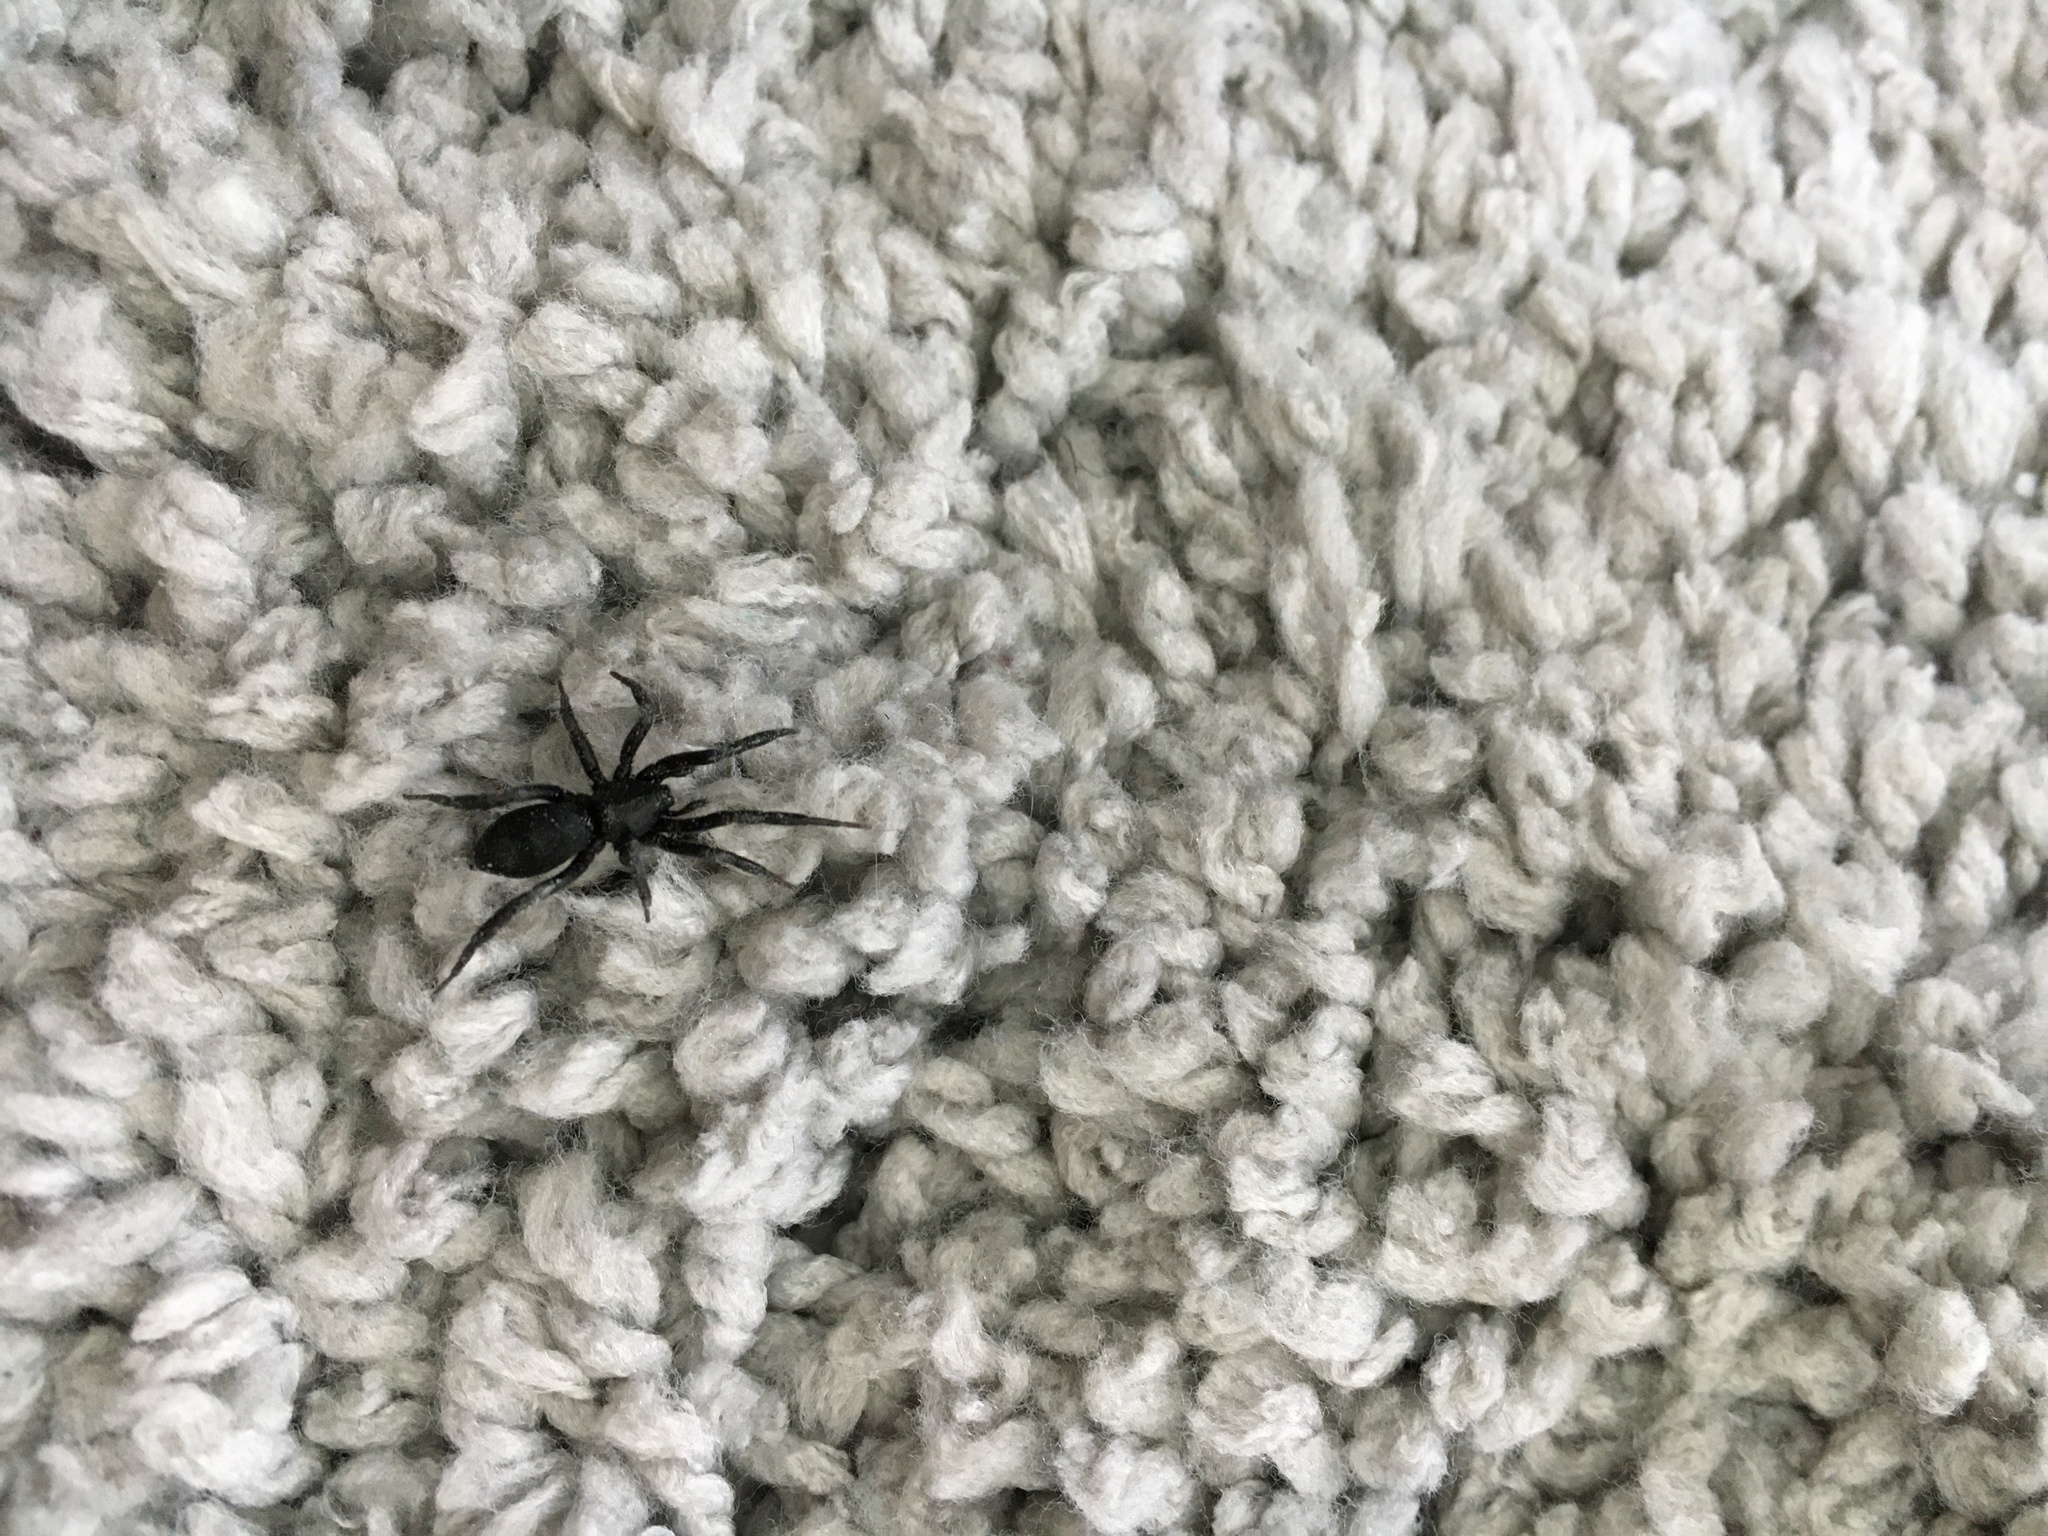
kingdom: Animalia
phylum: Arthropoda
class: Arachnida
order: Araneae
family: Gnaphosidae
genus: Scotophaeus
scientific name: Scotophaeus scutulatus
